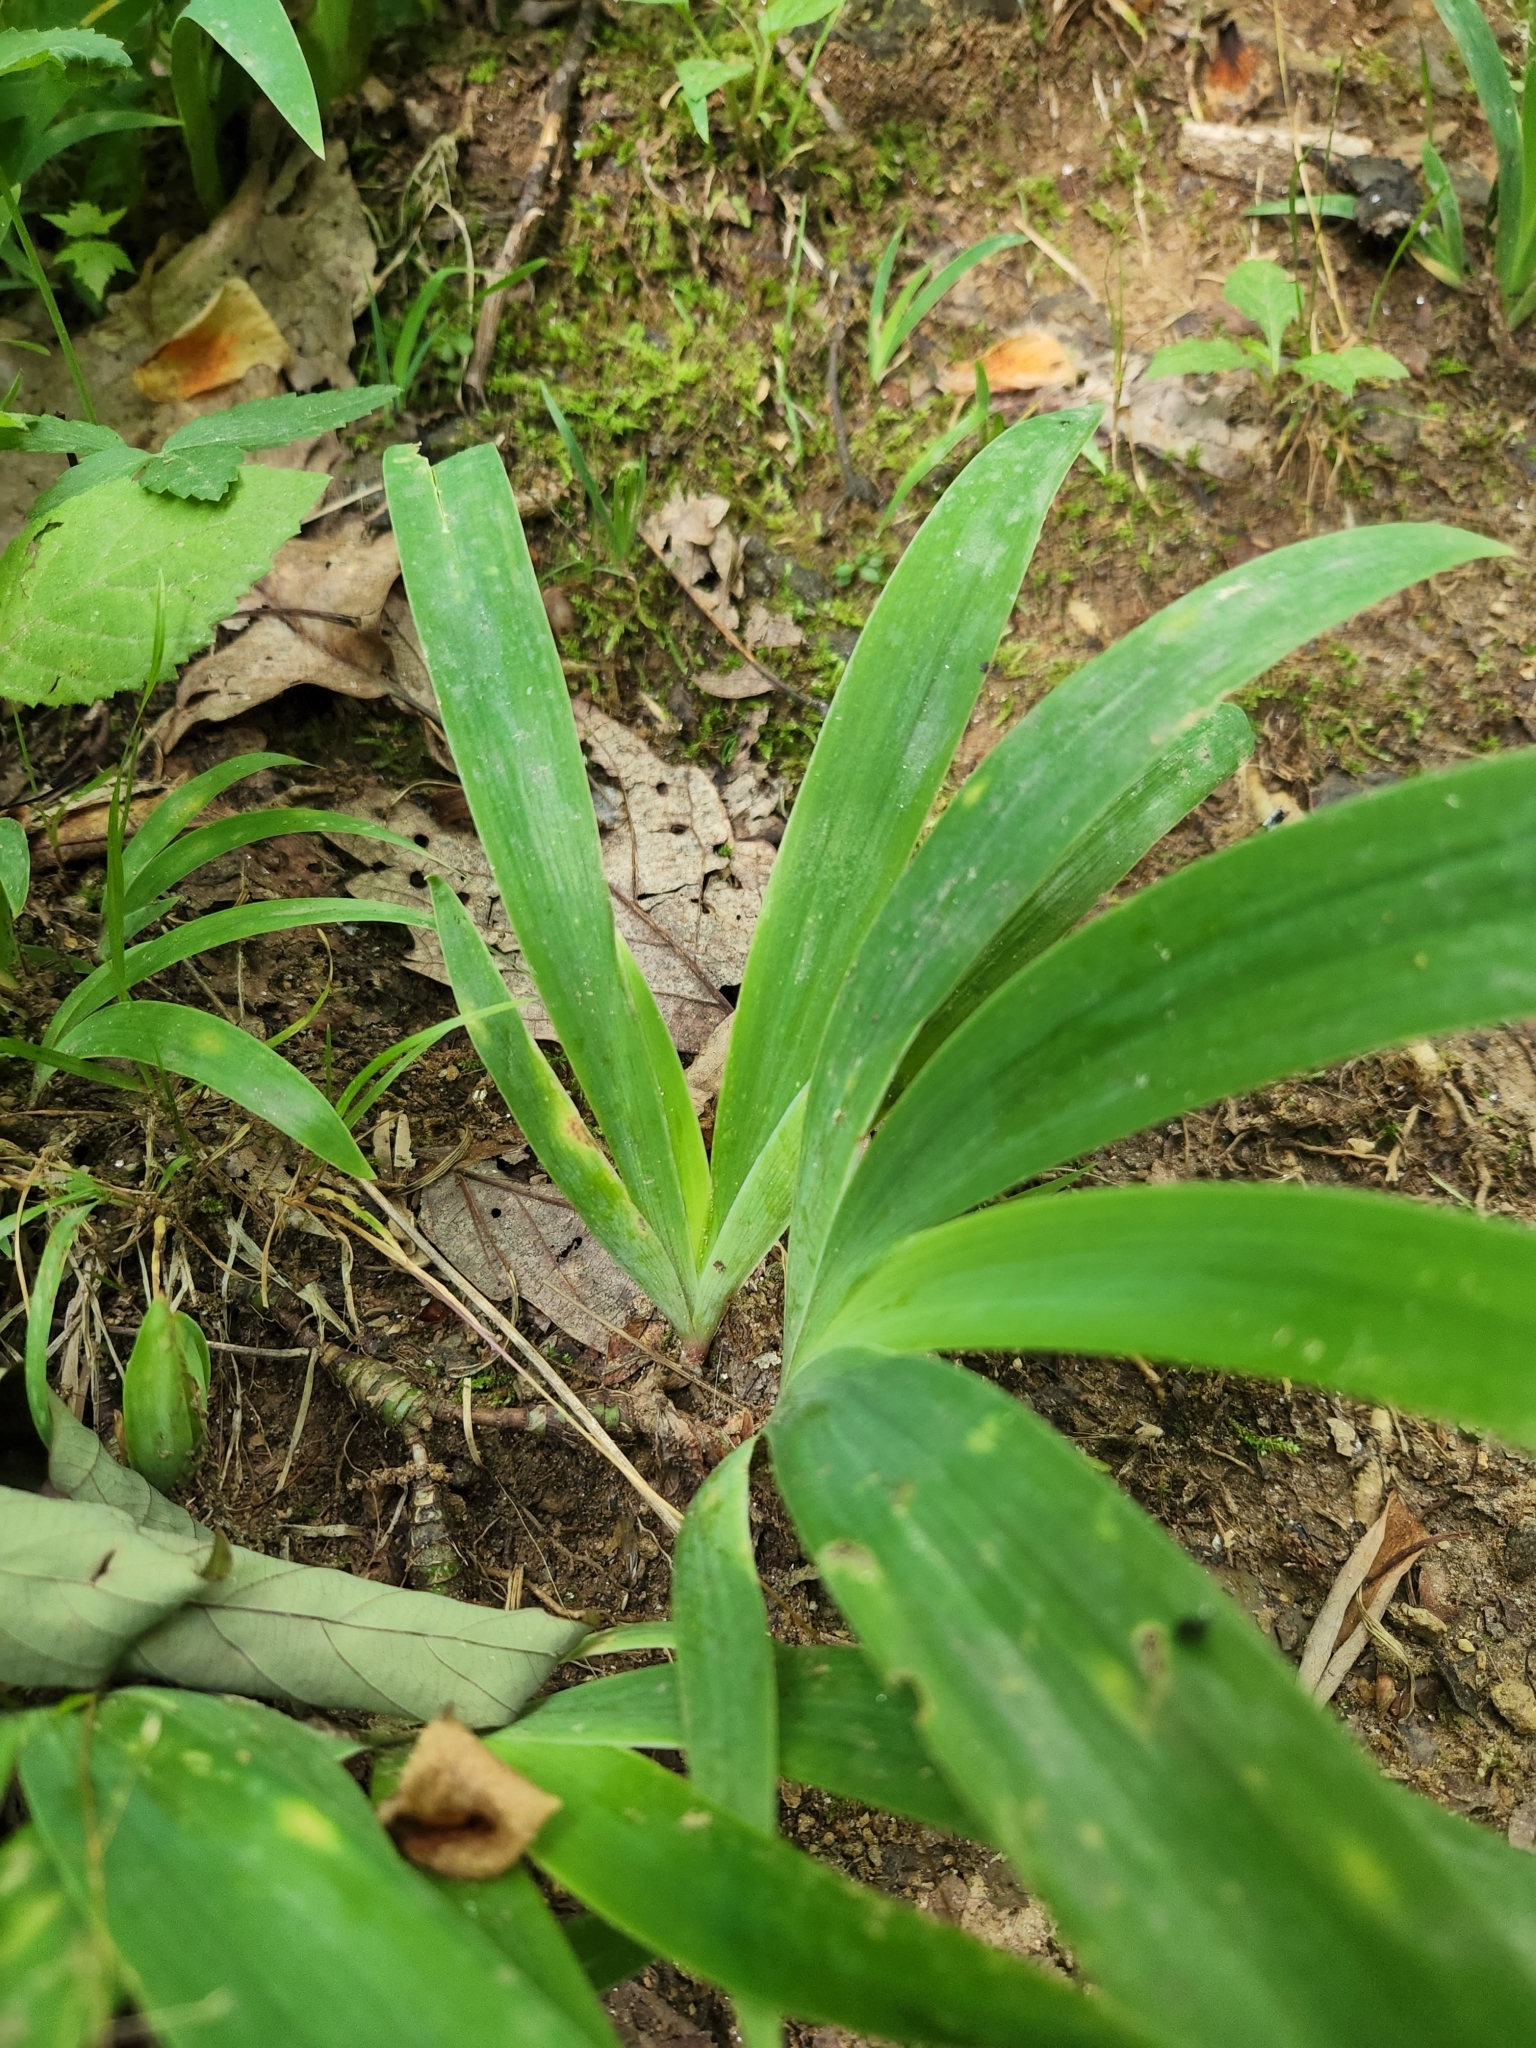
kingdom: Plantae
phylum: Tracheophyta
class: Liliopsida
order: Asparagales
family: Iridaceae
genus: Iris
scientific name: Iris cristata
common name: Crested iris
